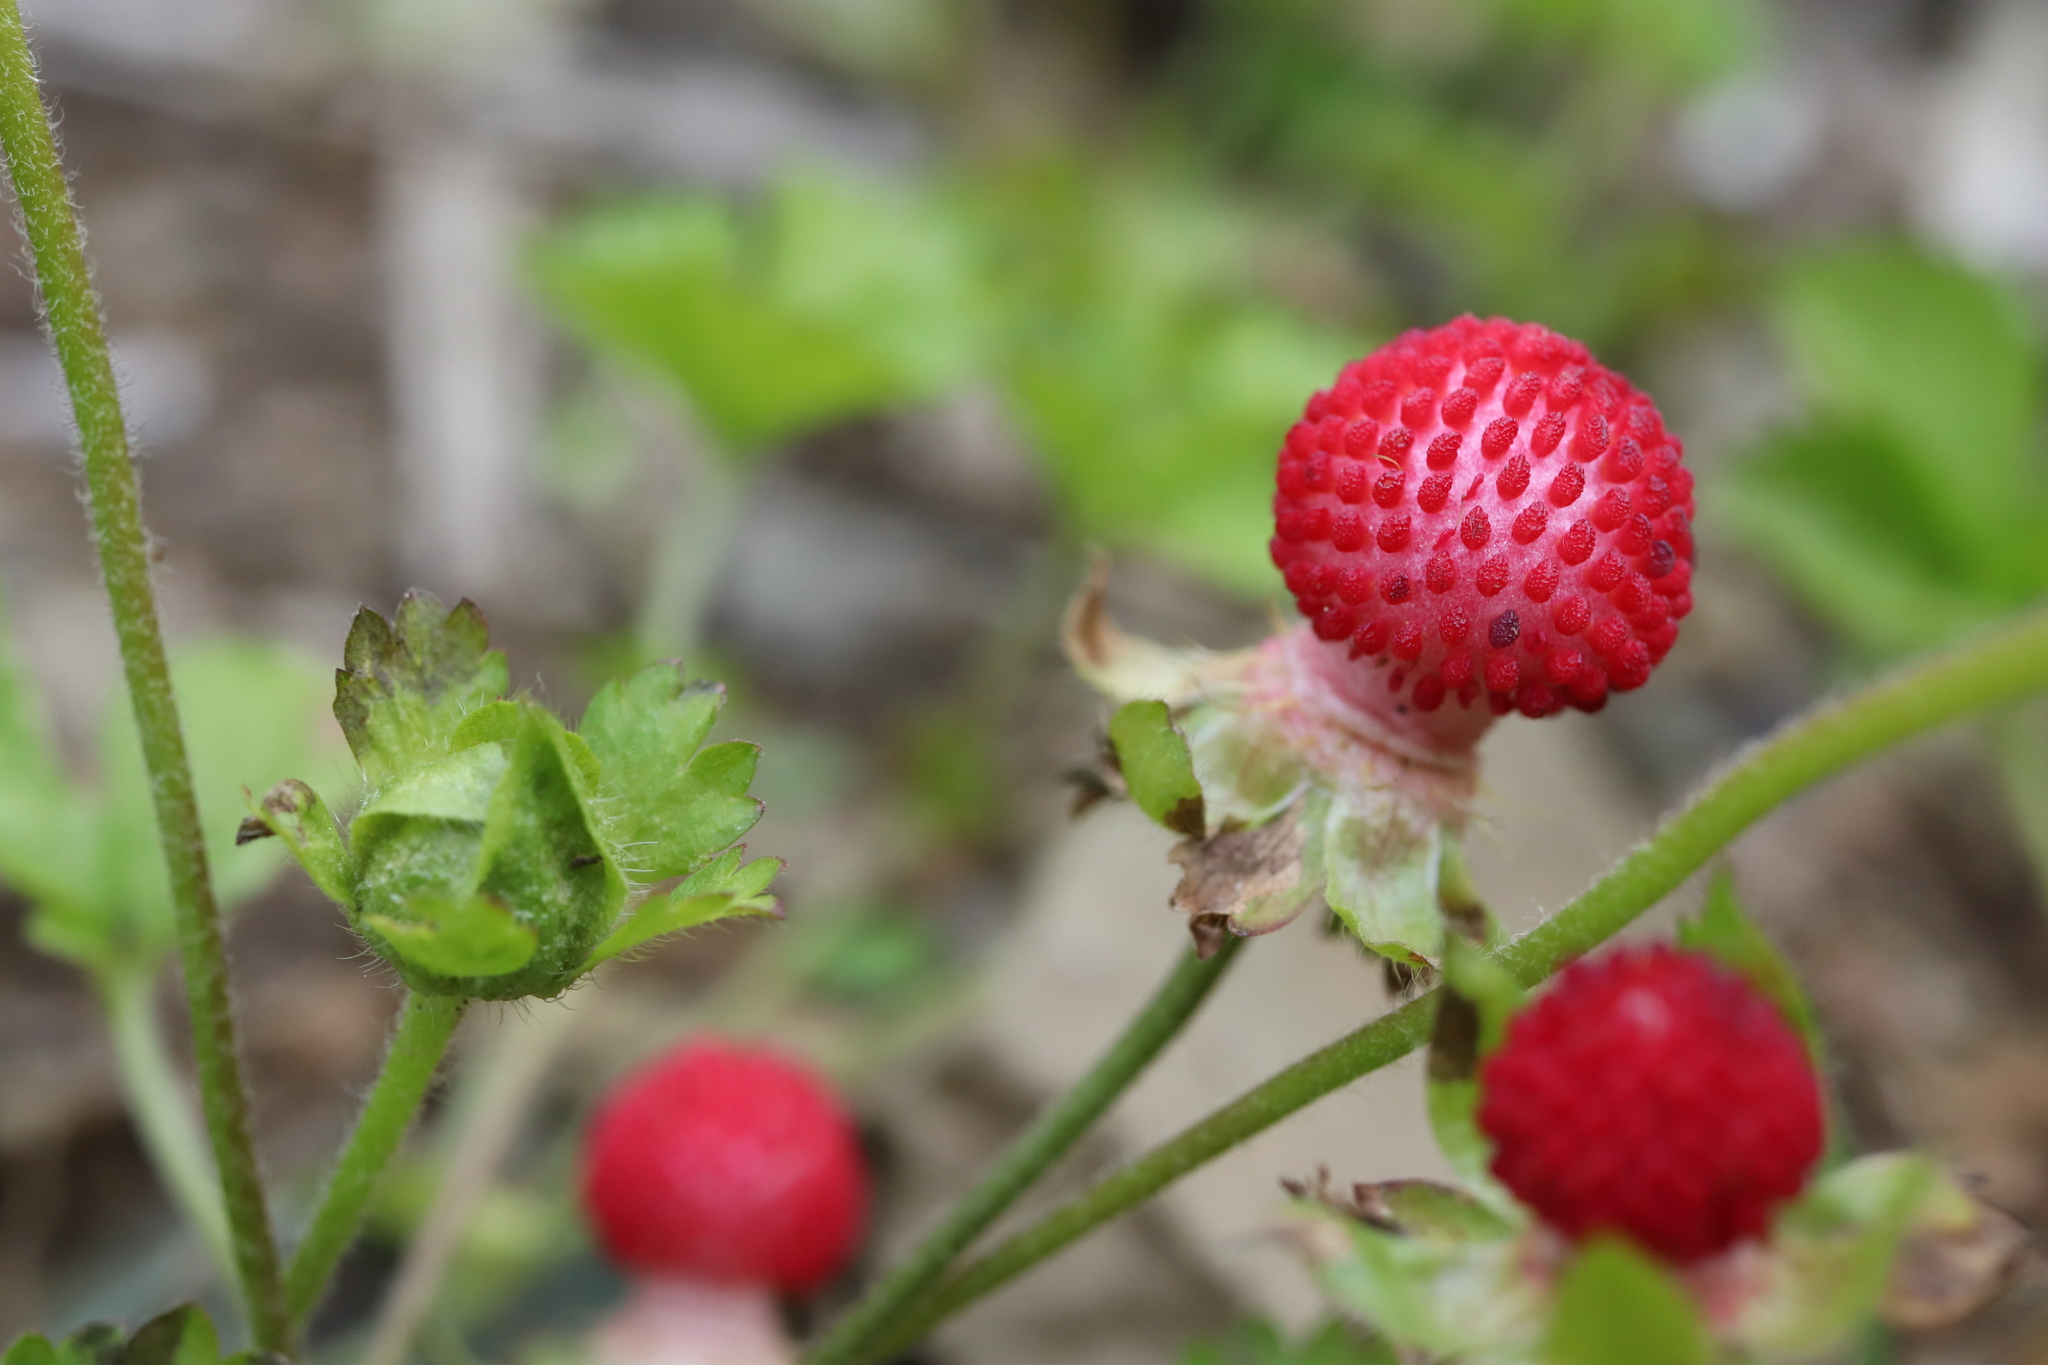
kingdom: Plantae
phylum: Tracheophyta
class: Magnoliopsida
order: Rosales
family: Rosaceae
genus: Potentilla
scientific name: Potentilla wallichiana
